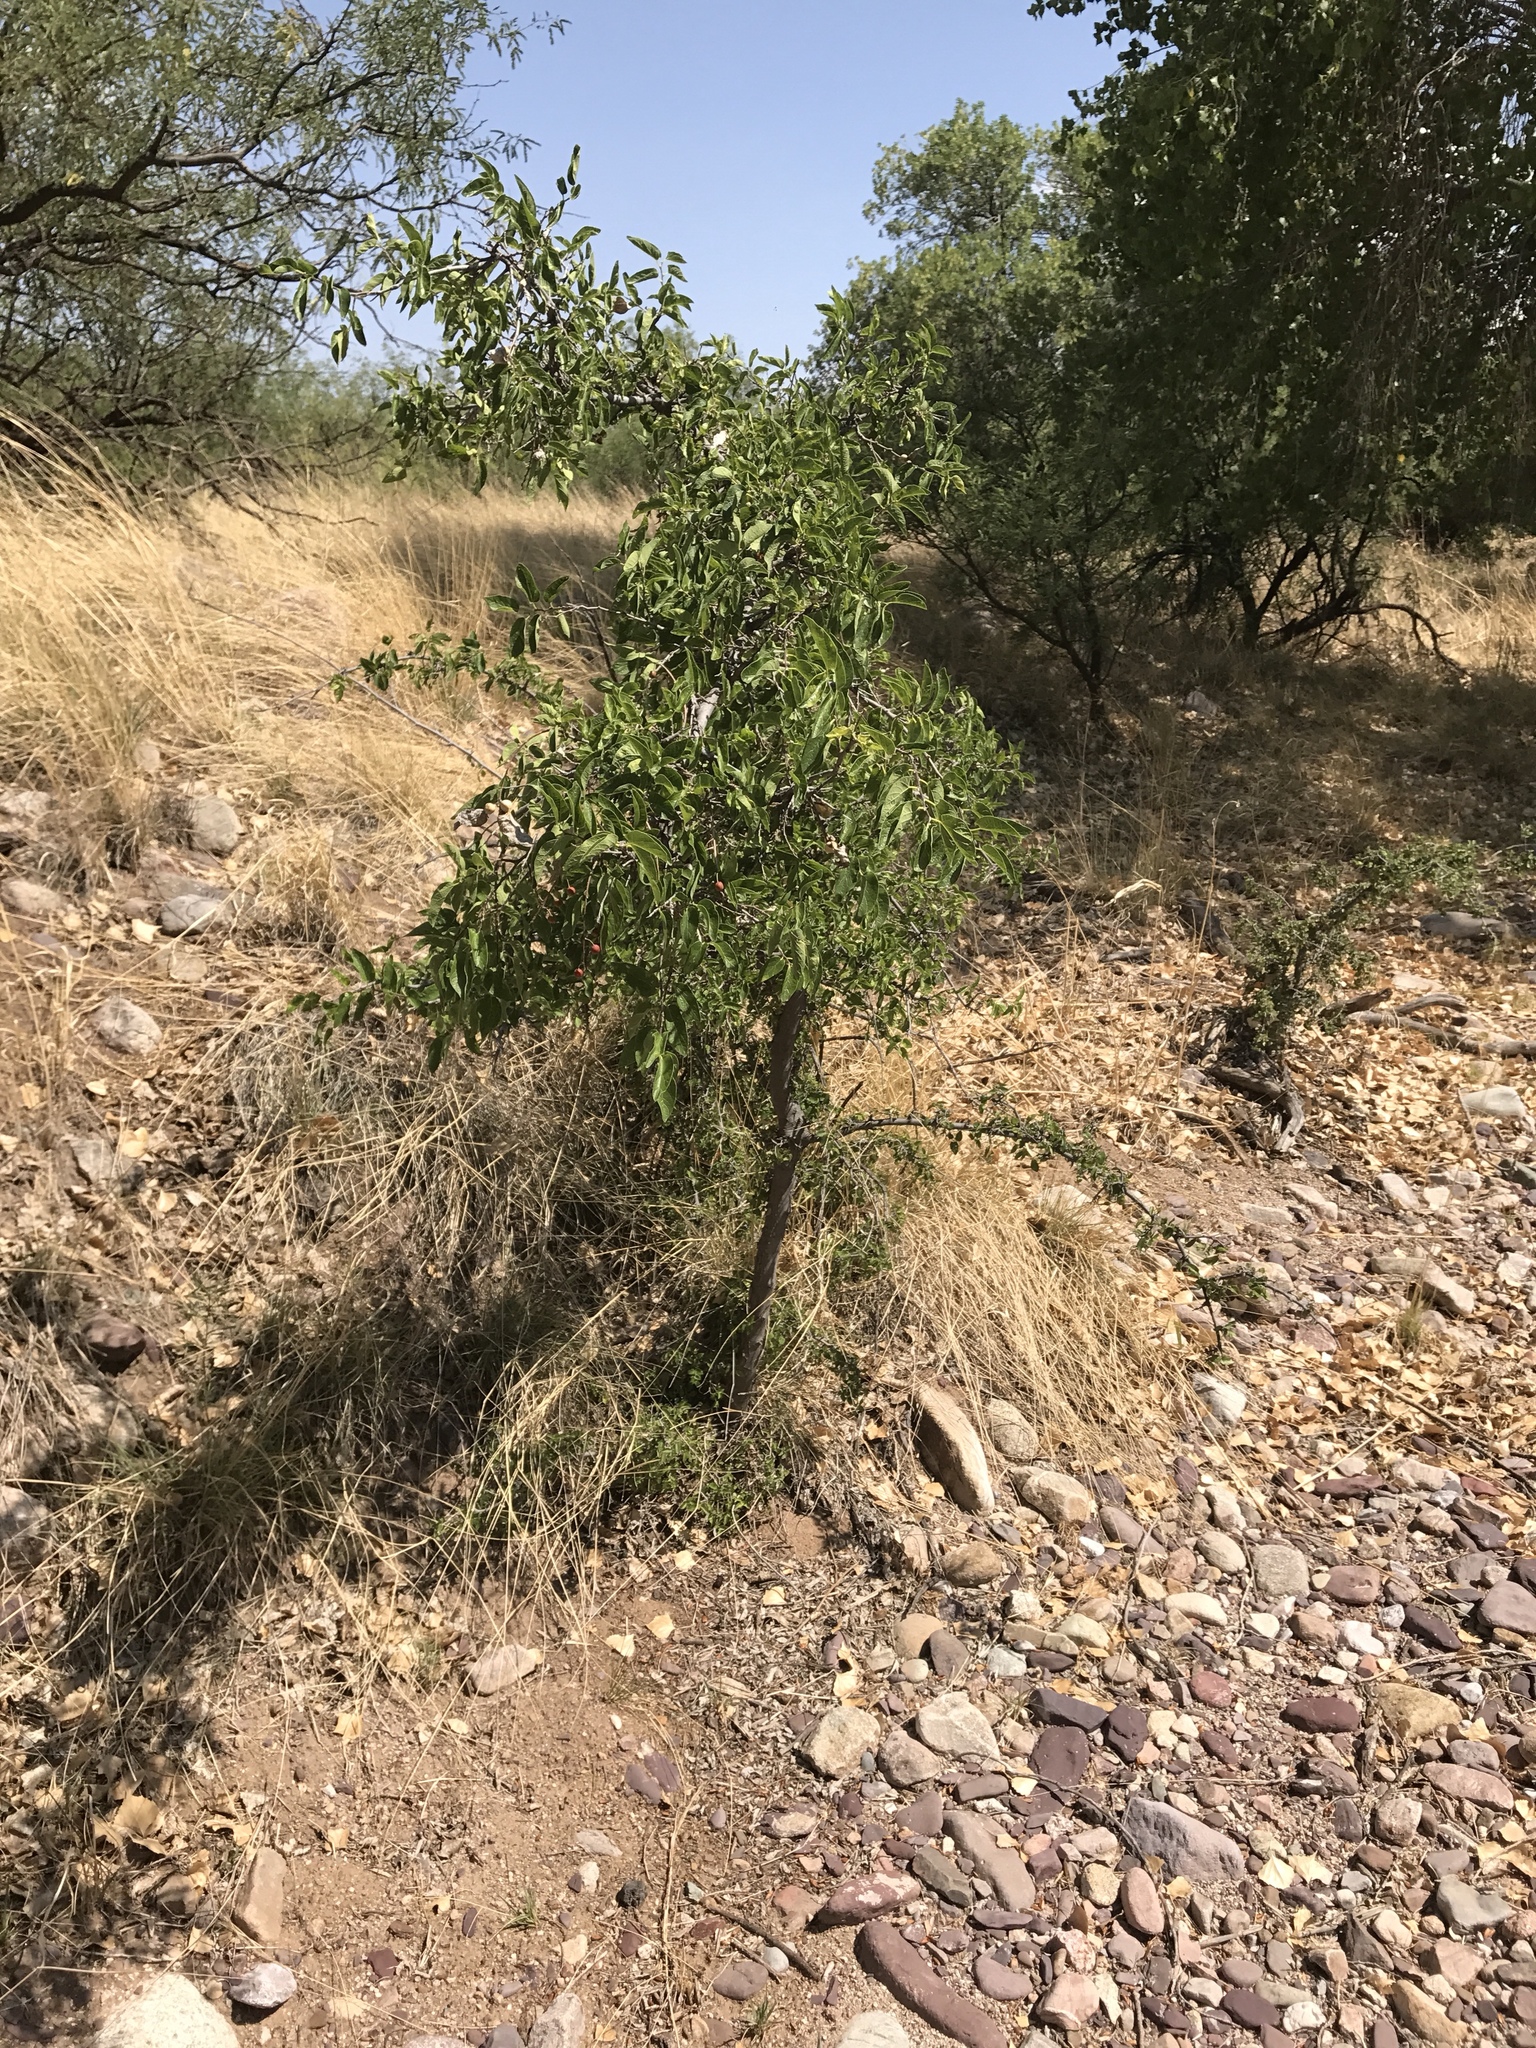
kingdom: Plantae
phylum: Tracheophyta
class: Magnoliopsida
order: Rosales
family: Cannabaceae
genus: Celtis
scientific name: Celtis reticulata
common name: Netleaf hackberry
